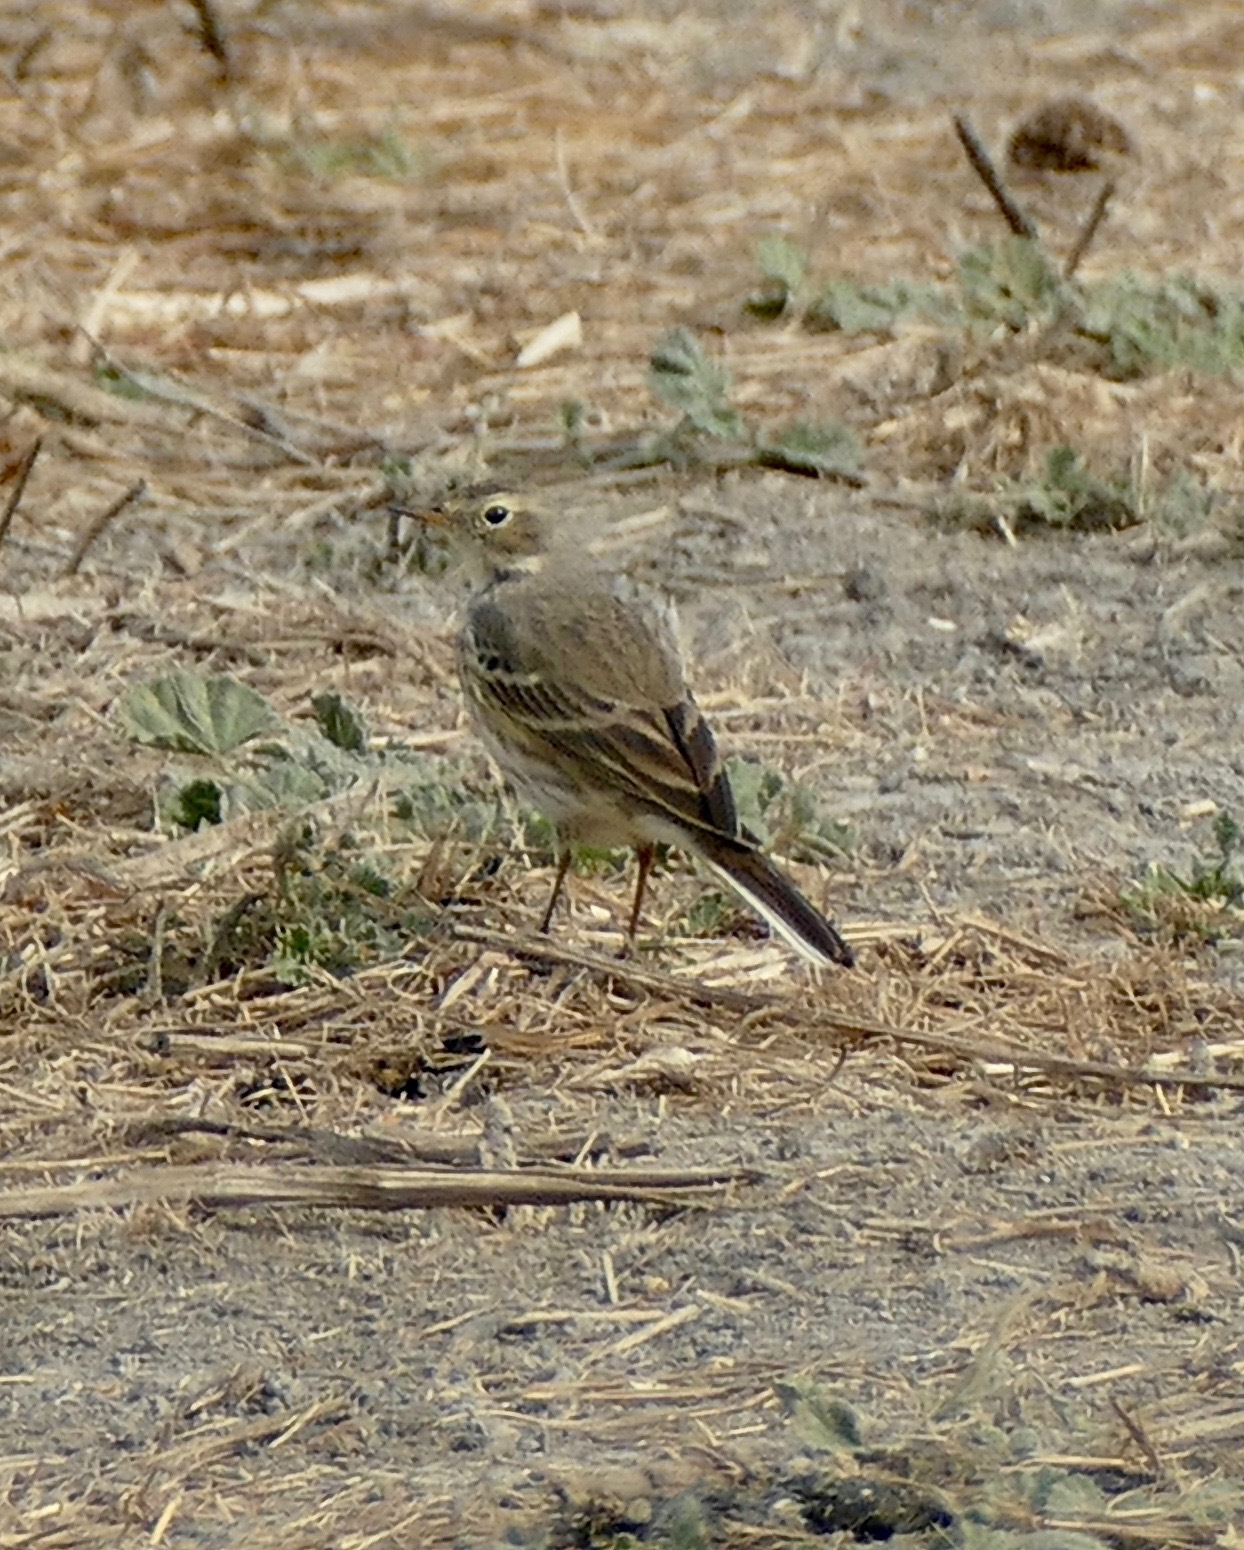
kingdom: Animalia
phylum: Chordata
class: Aves
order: Passeriformes
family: Motacillidae
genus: Anthus
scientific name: Anthus rubescens
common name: Buff-bellied pipit
